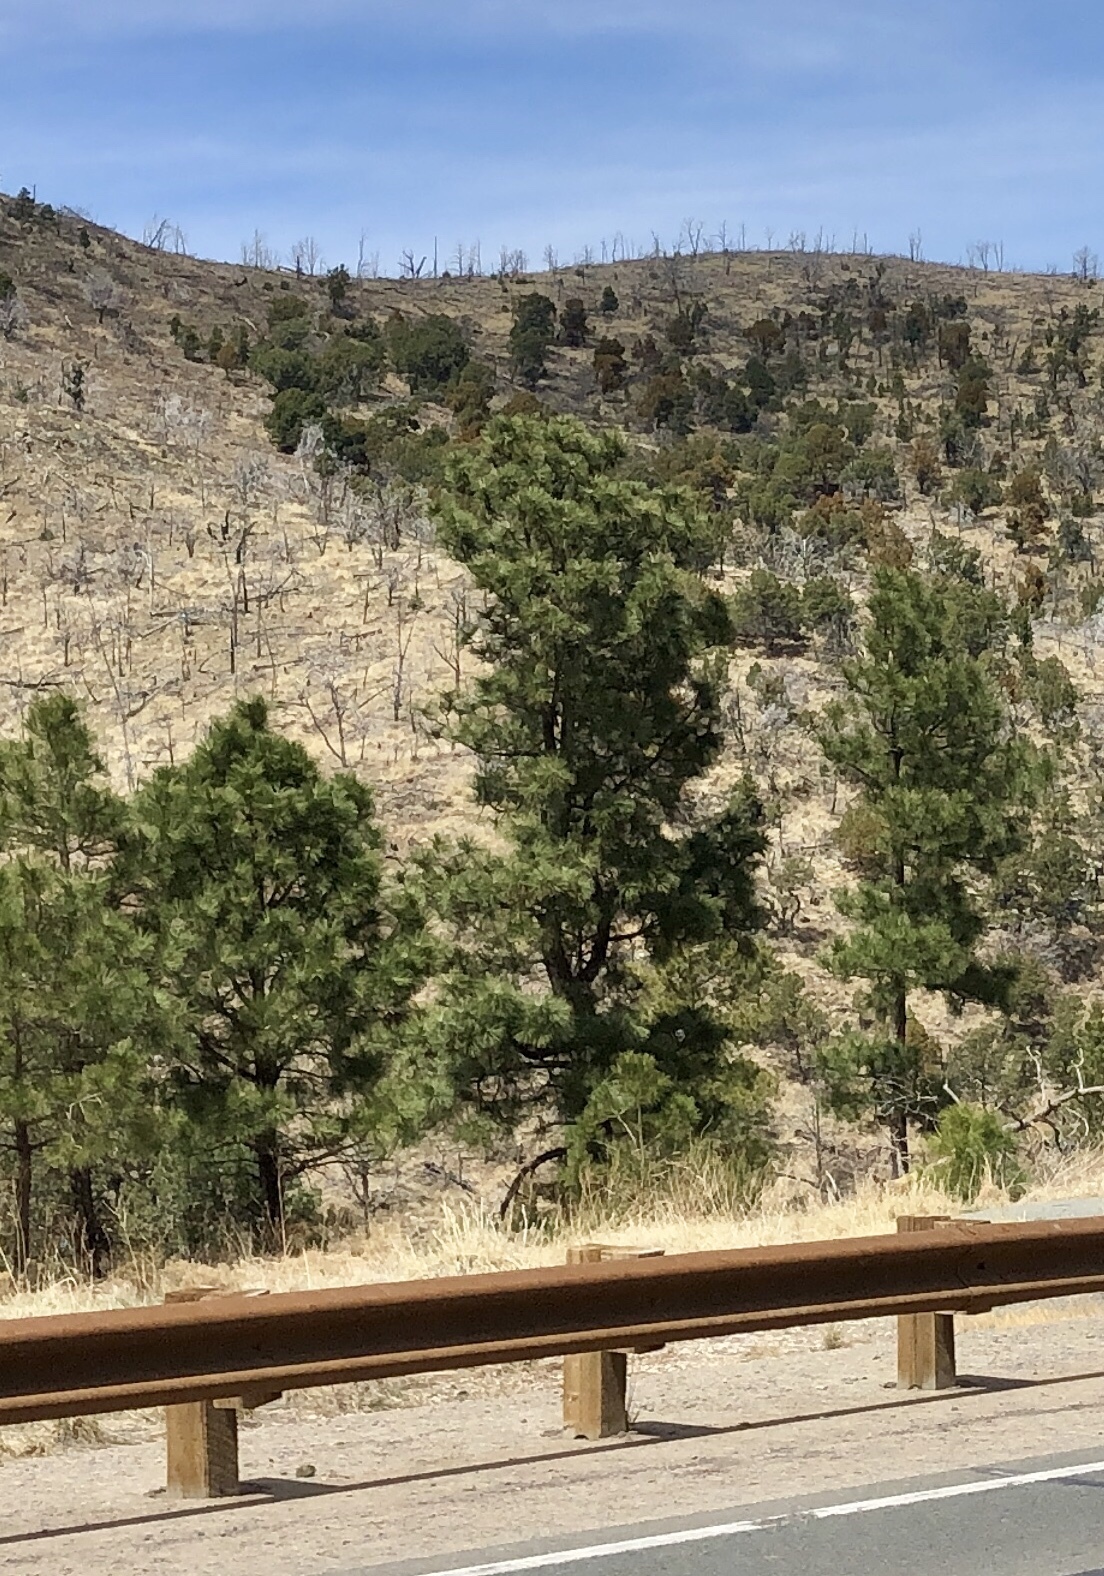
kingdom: Plantae
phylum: Tracheophyta
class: Pinopsida
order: Pinales
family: Pinaceae
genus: Pinus
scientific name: Pinus ponderosa
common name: Western yellow-pine
